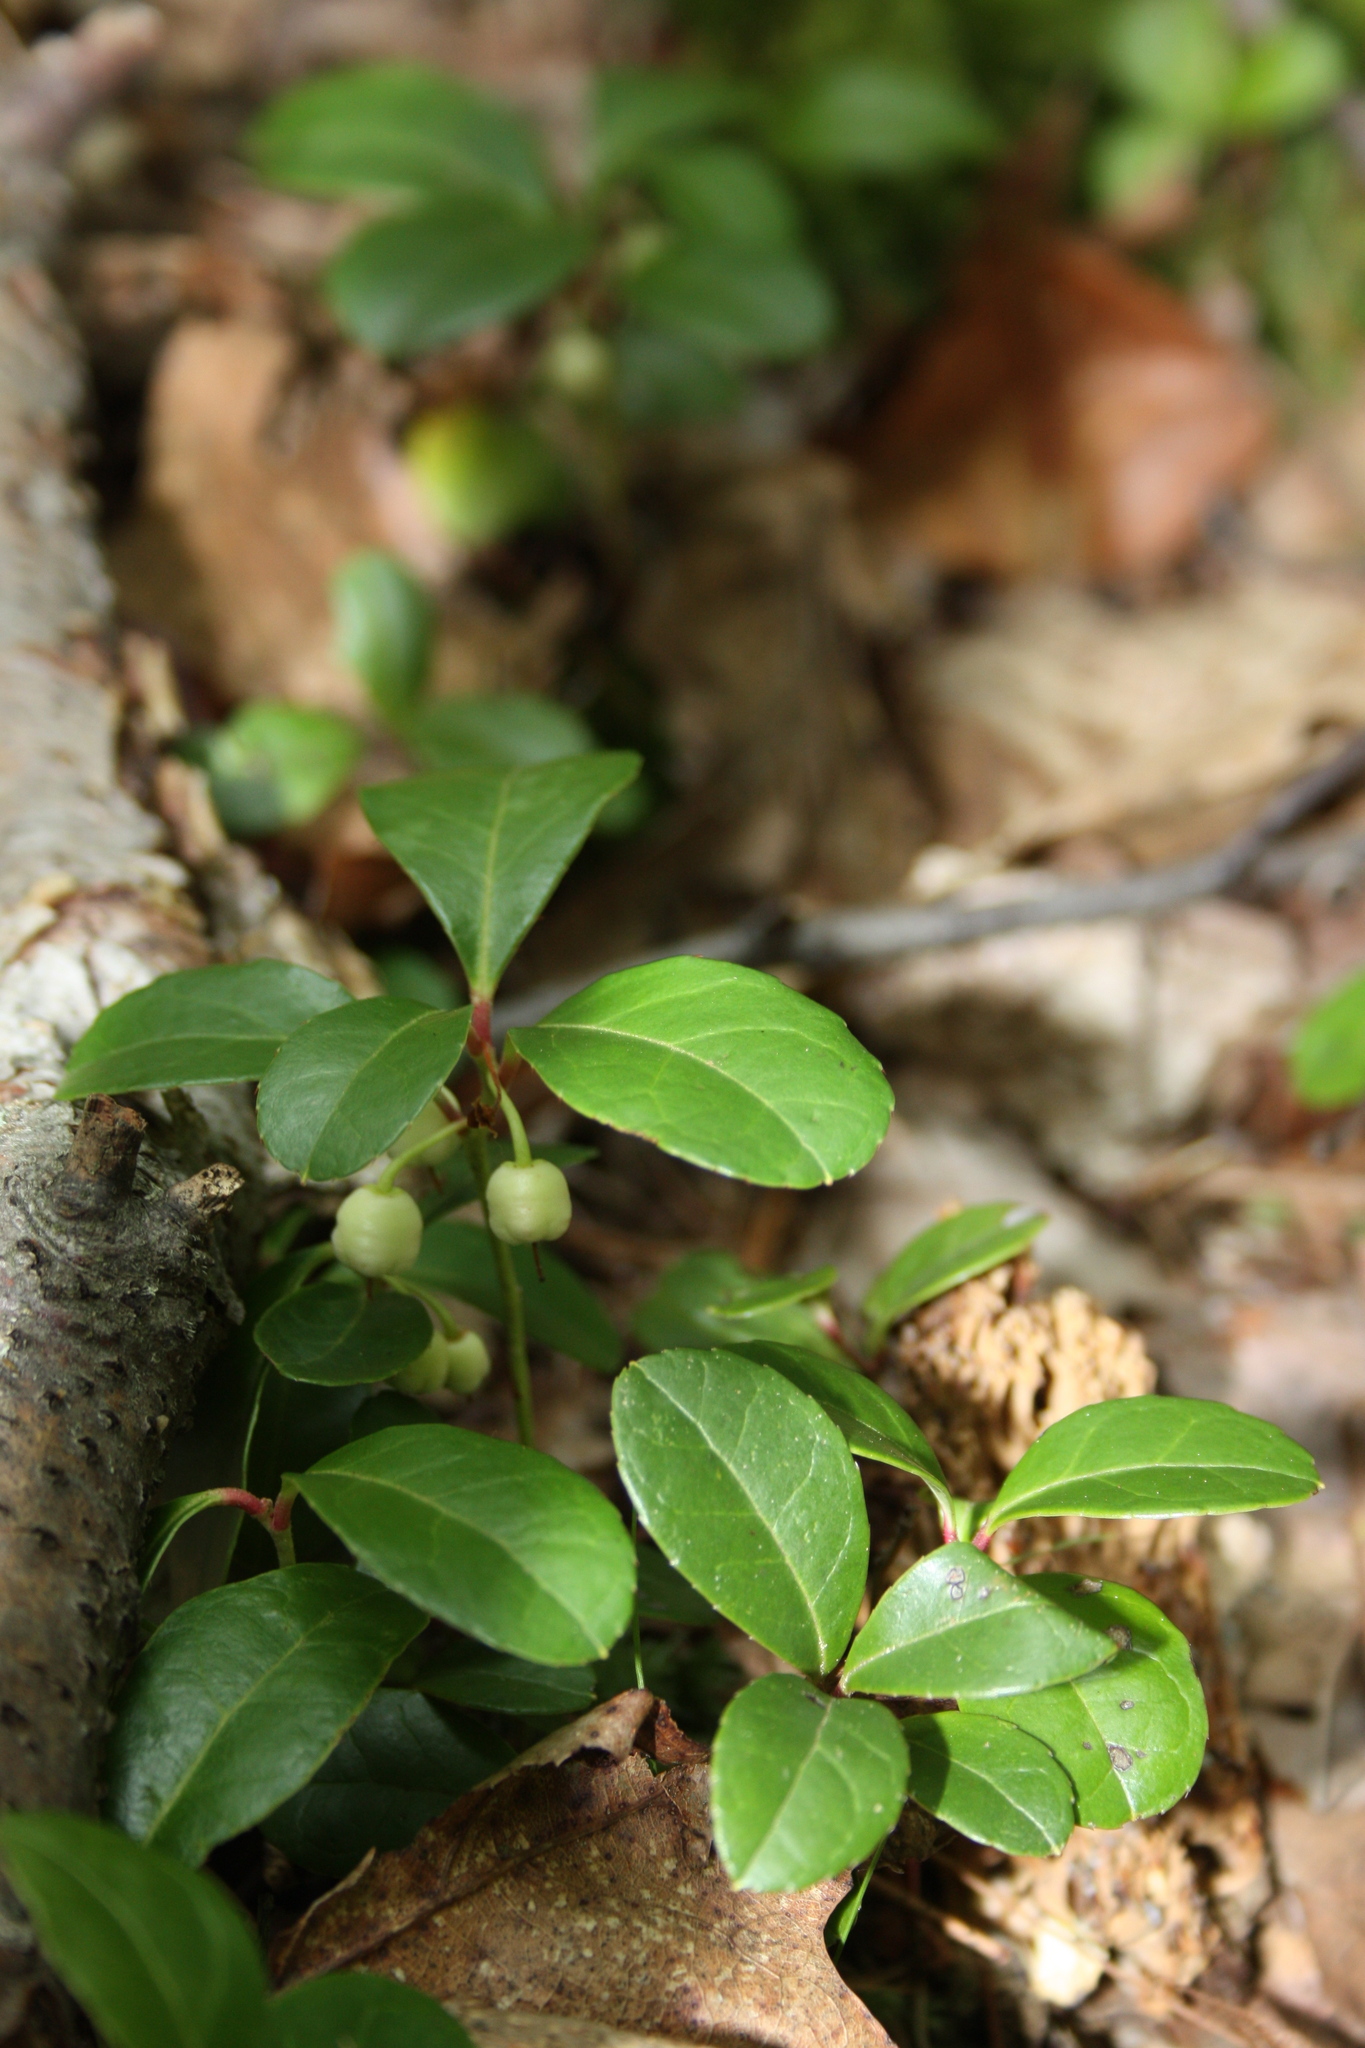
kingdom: Plantae
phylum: Tracheophyta
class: Magnoliopsida
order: Ericales
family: Ericaceae
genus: Gaultheria
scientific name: Gaultheria procumbens
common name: Checkerberry
